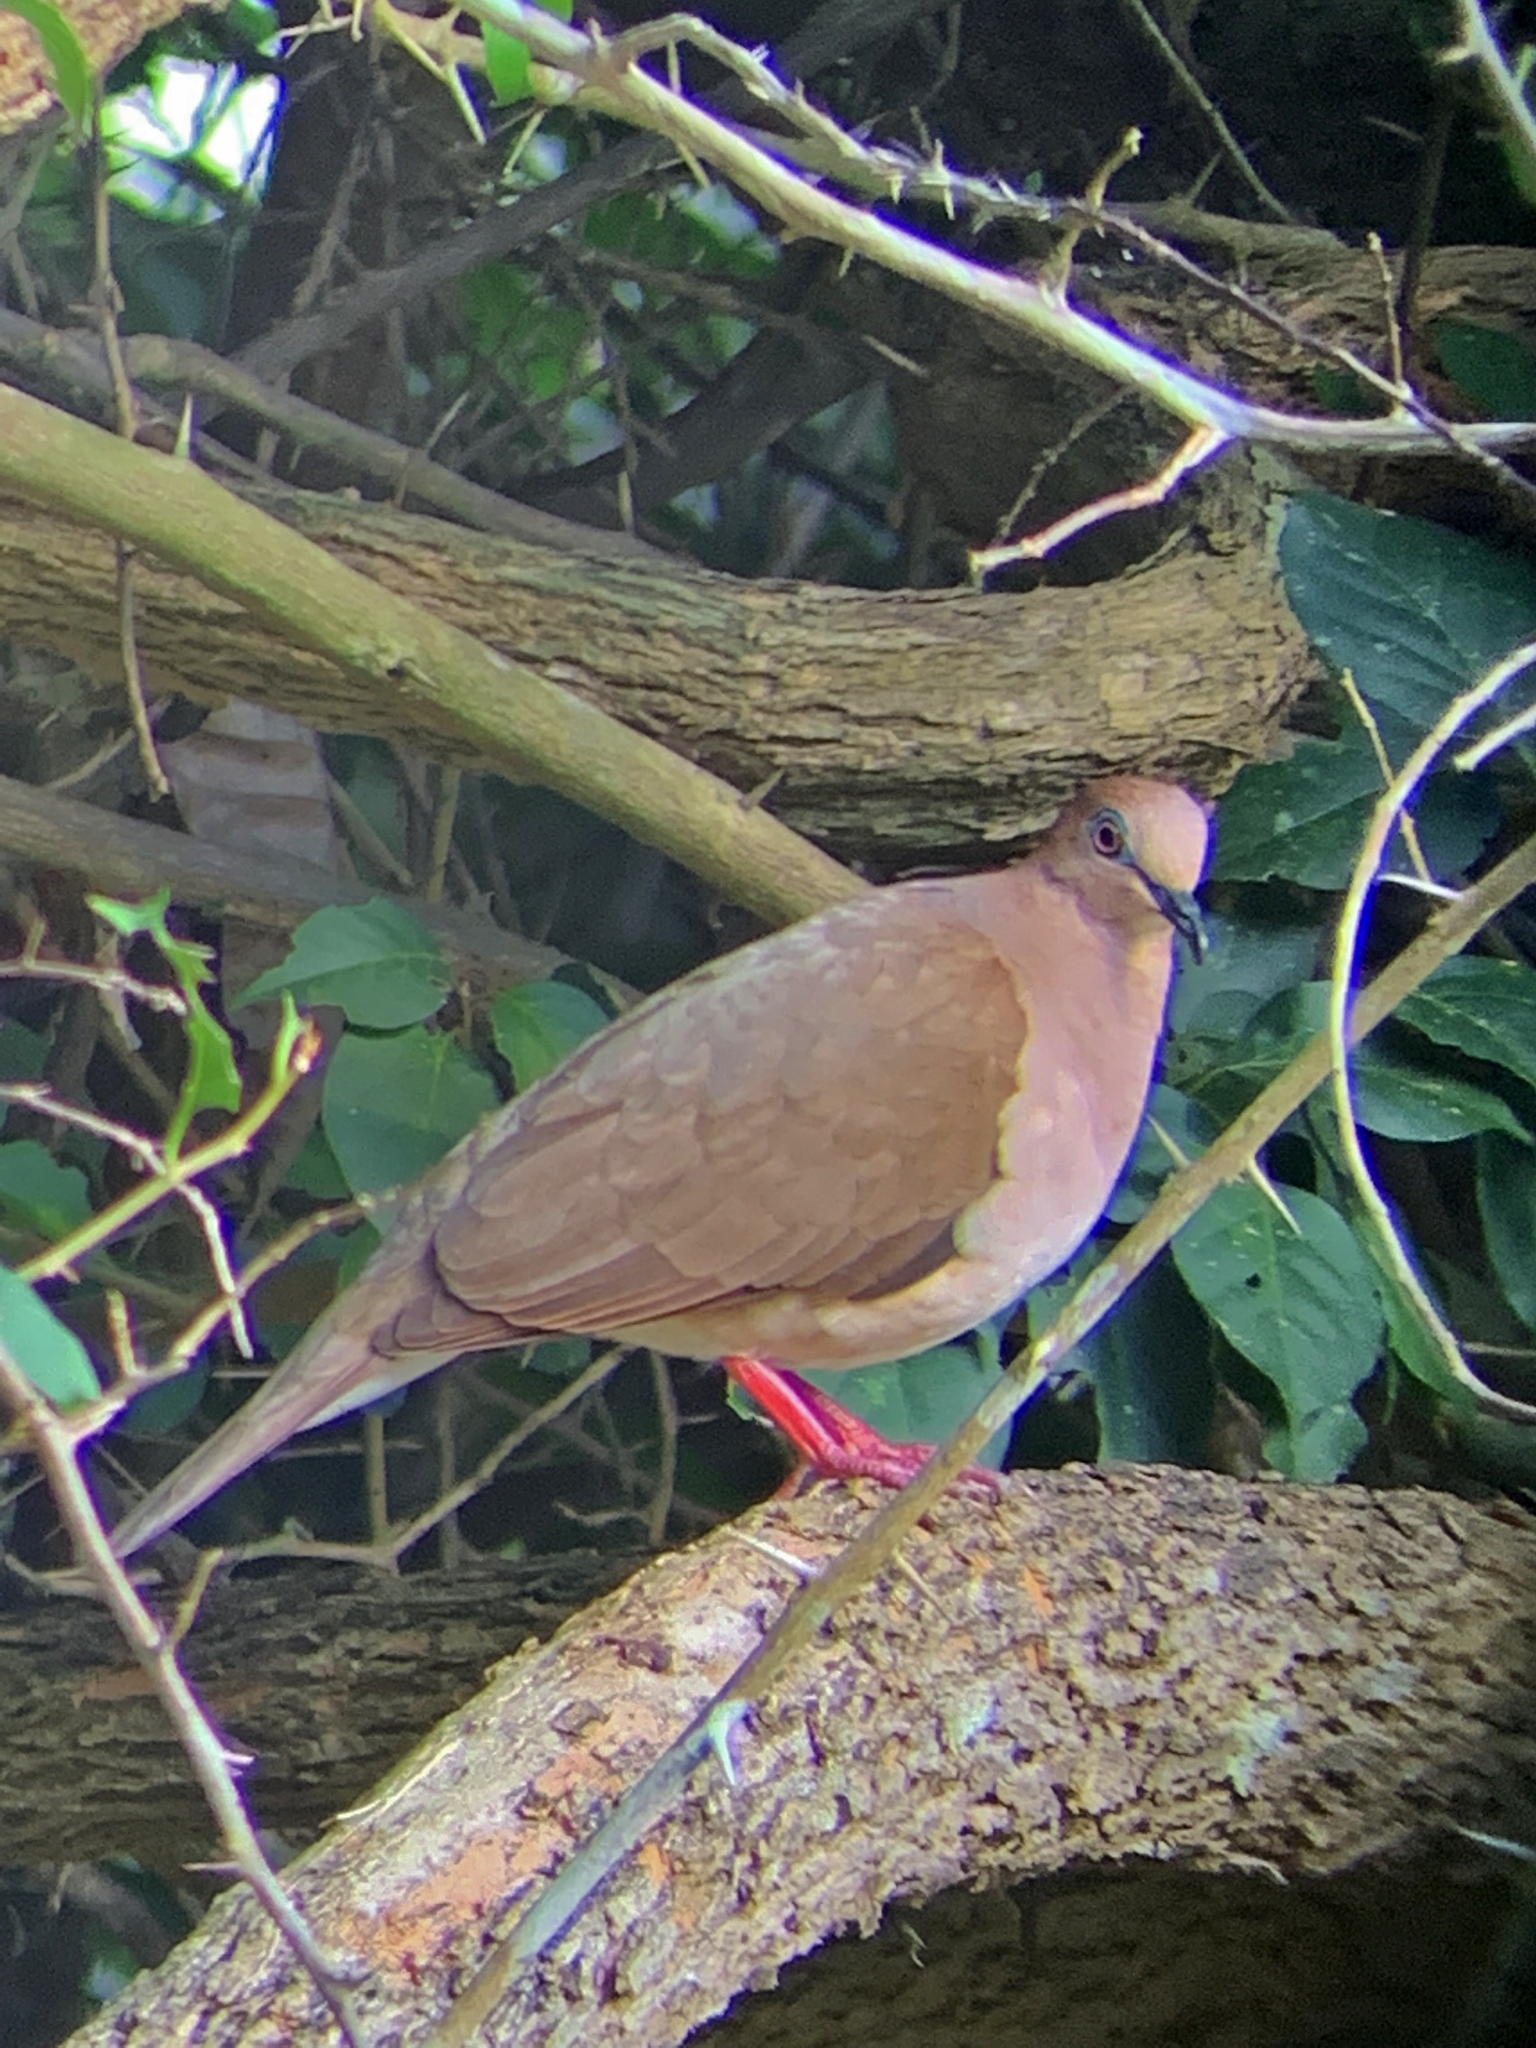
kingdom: Animalia
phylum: Chordata
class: Aves
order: Columbiformes
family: Columbidae
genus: Leptotila
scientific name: Leptotila verreauxi
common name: White-tipped dove
